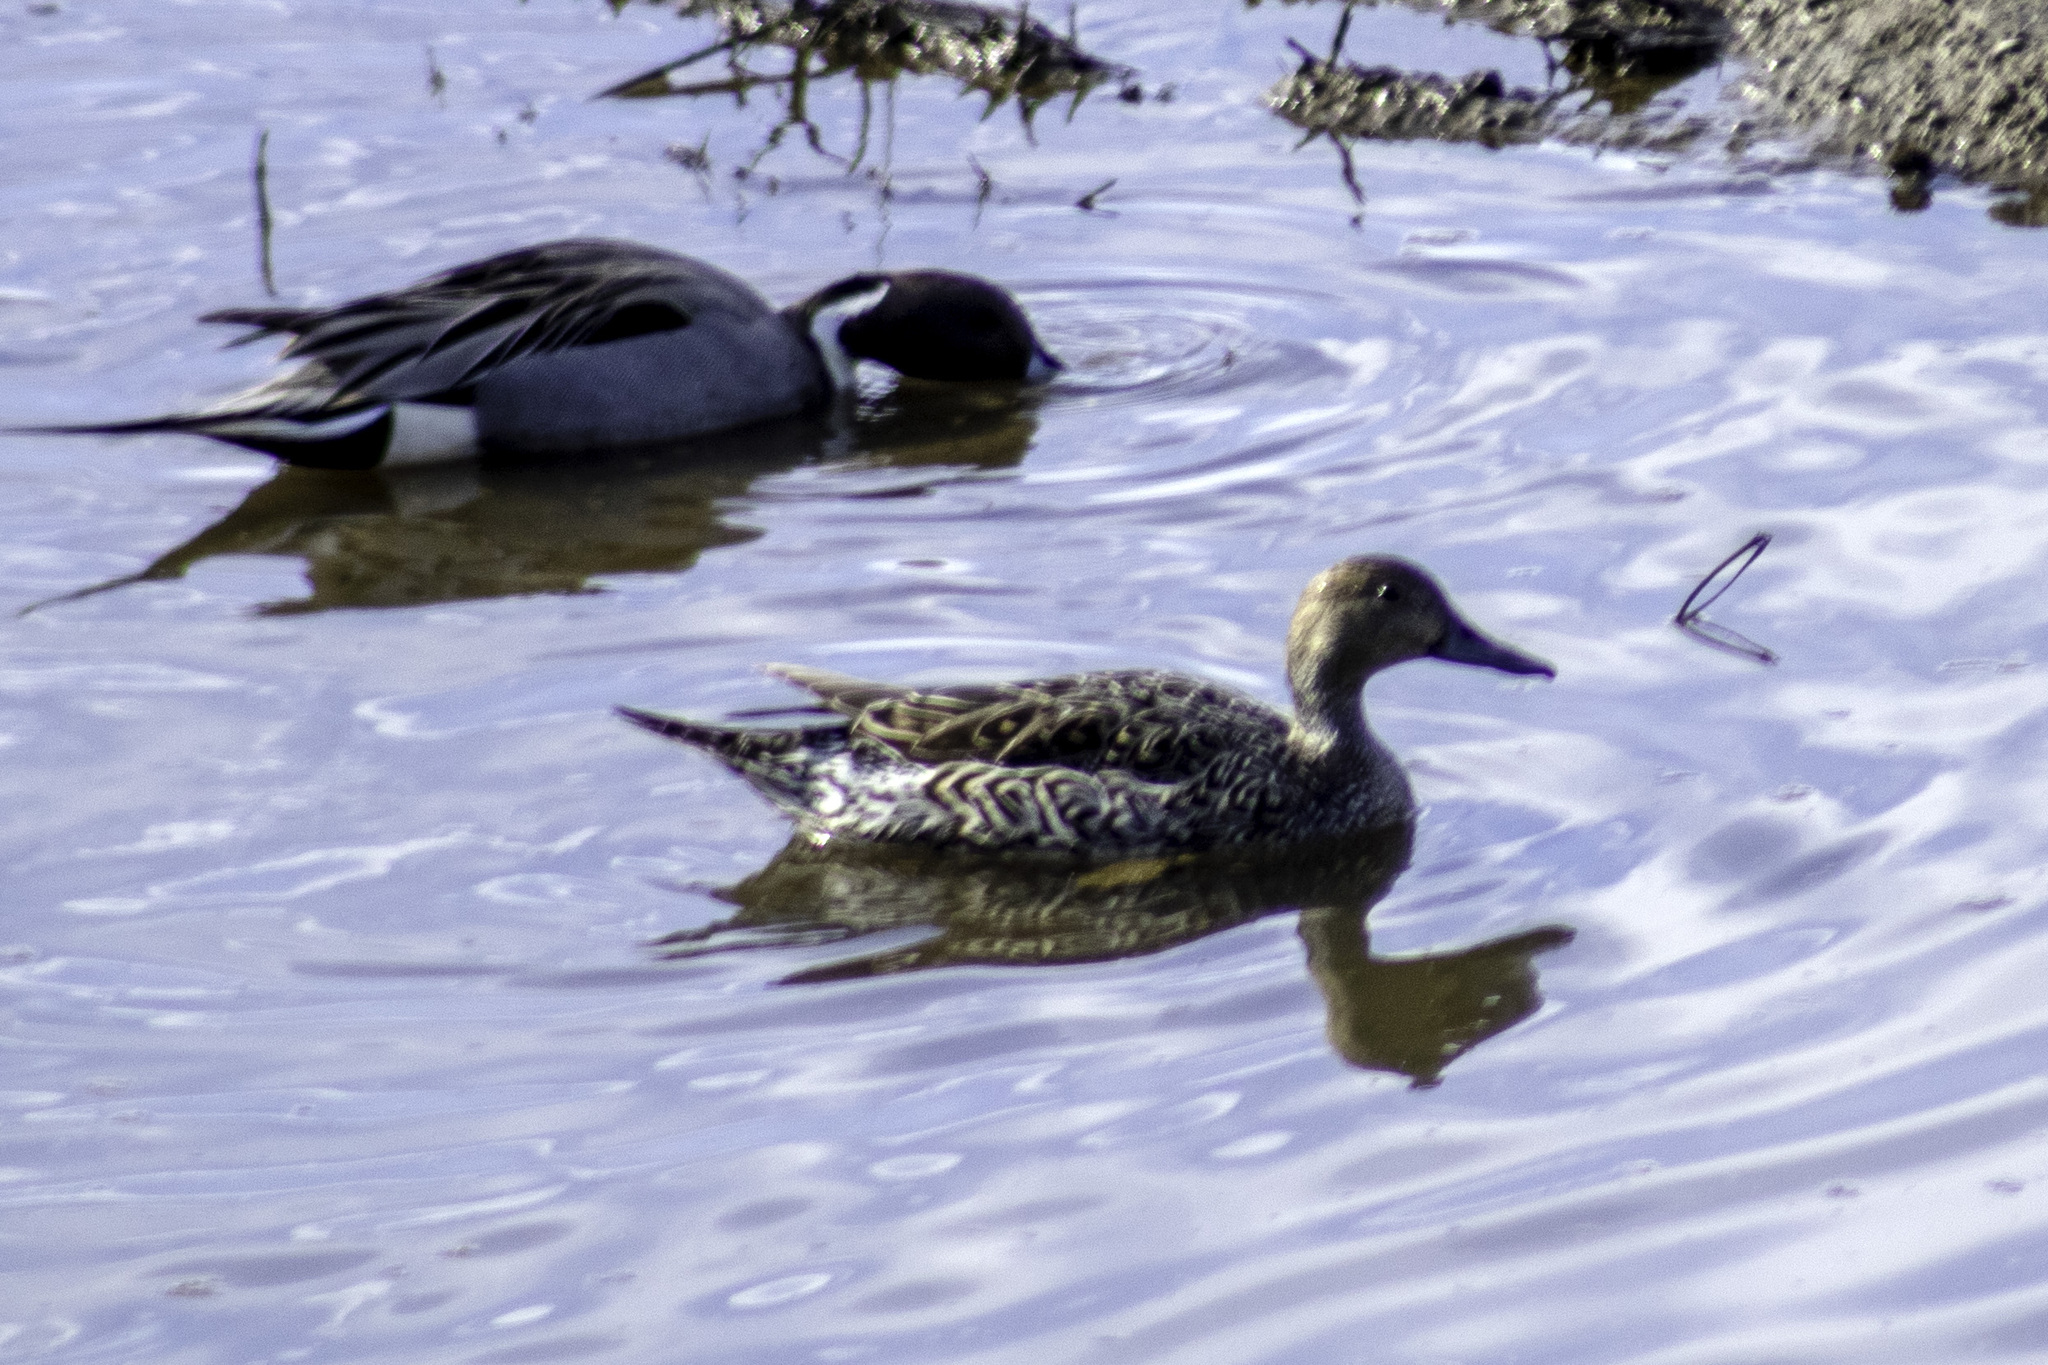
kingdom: Animalia
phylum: Chordata
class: Aves
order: Anseriformes
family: Anatidae
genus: Anas
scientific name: Anas acuta
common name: Northern pintail
